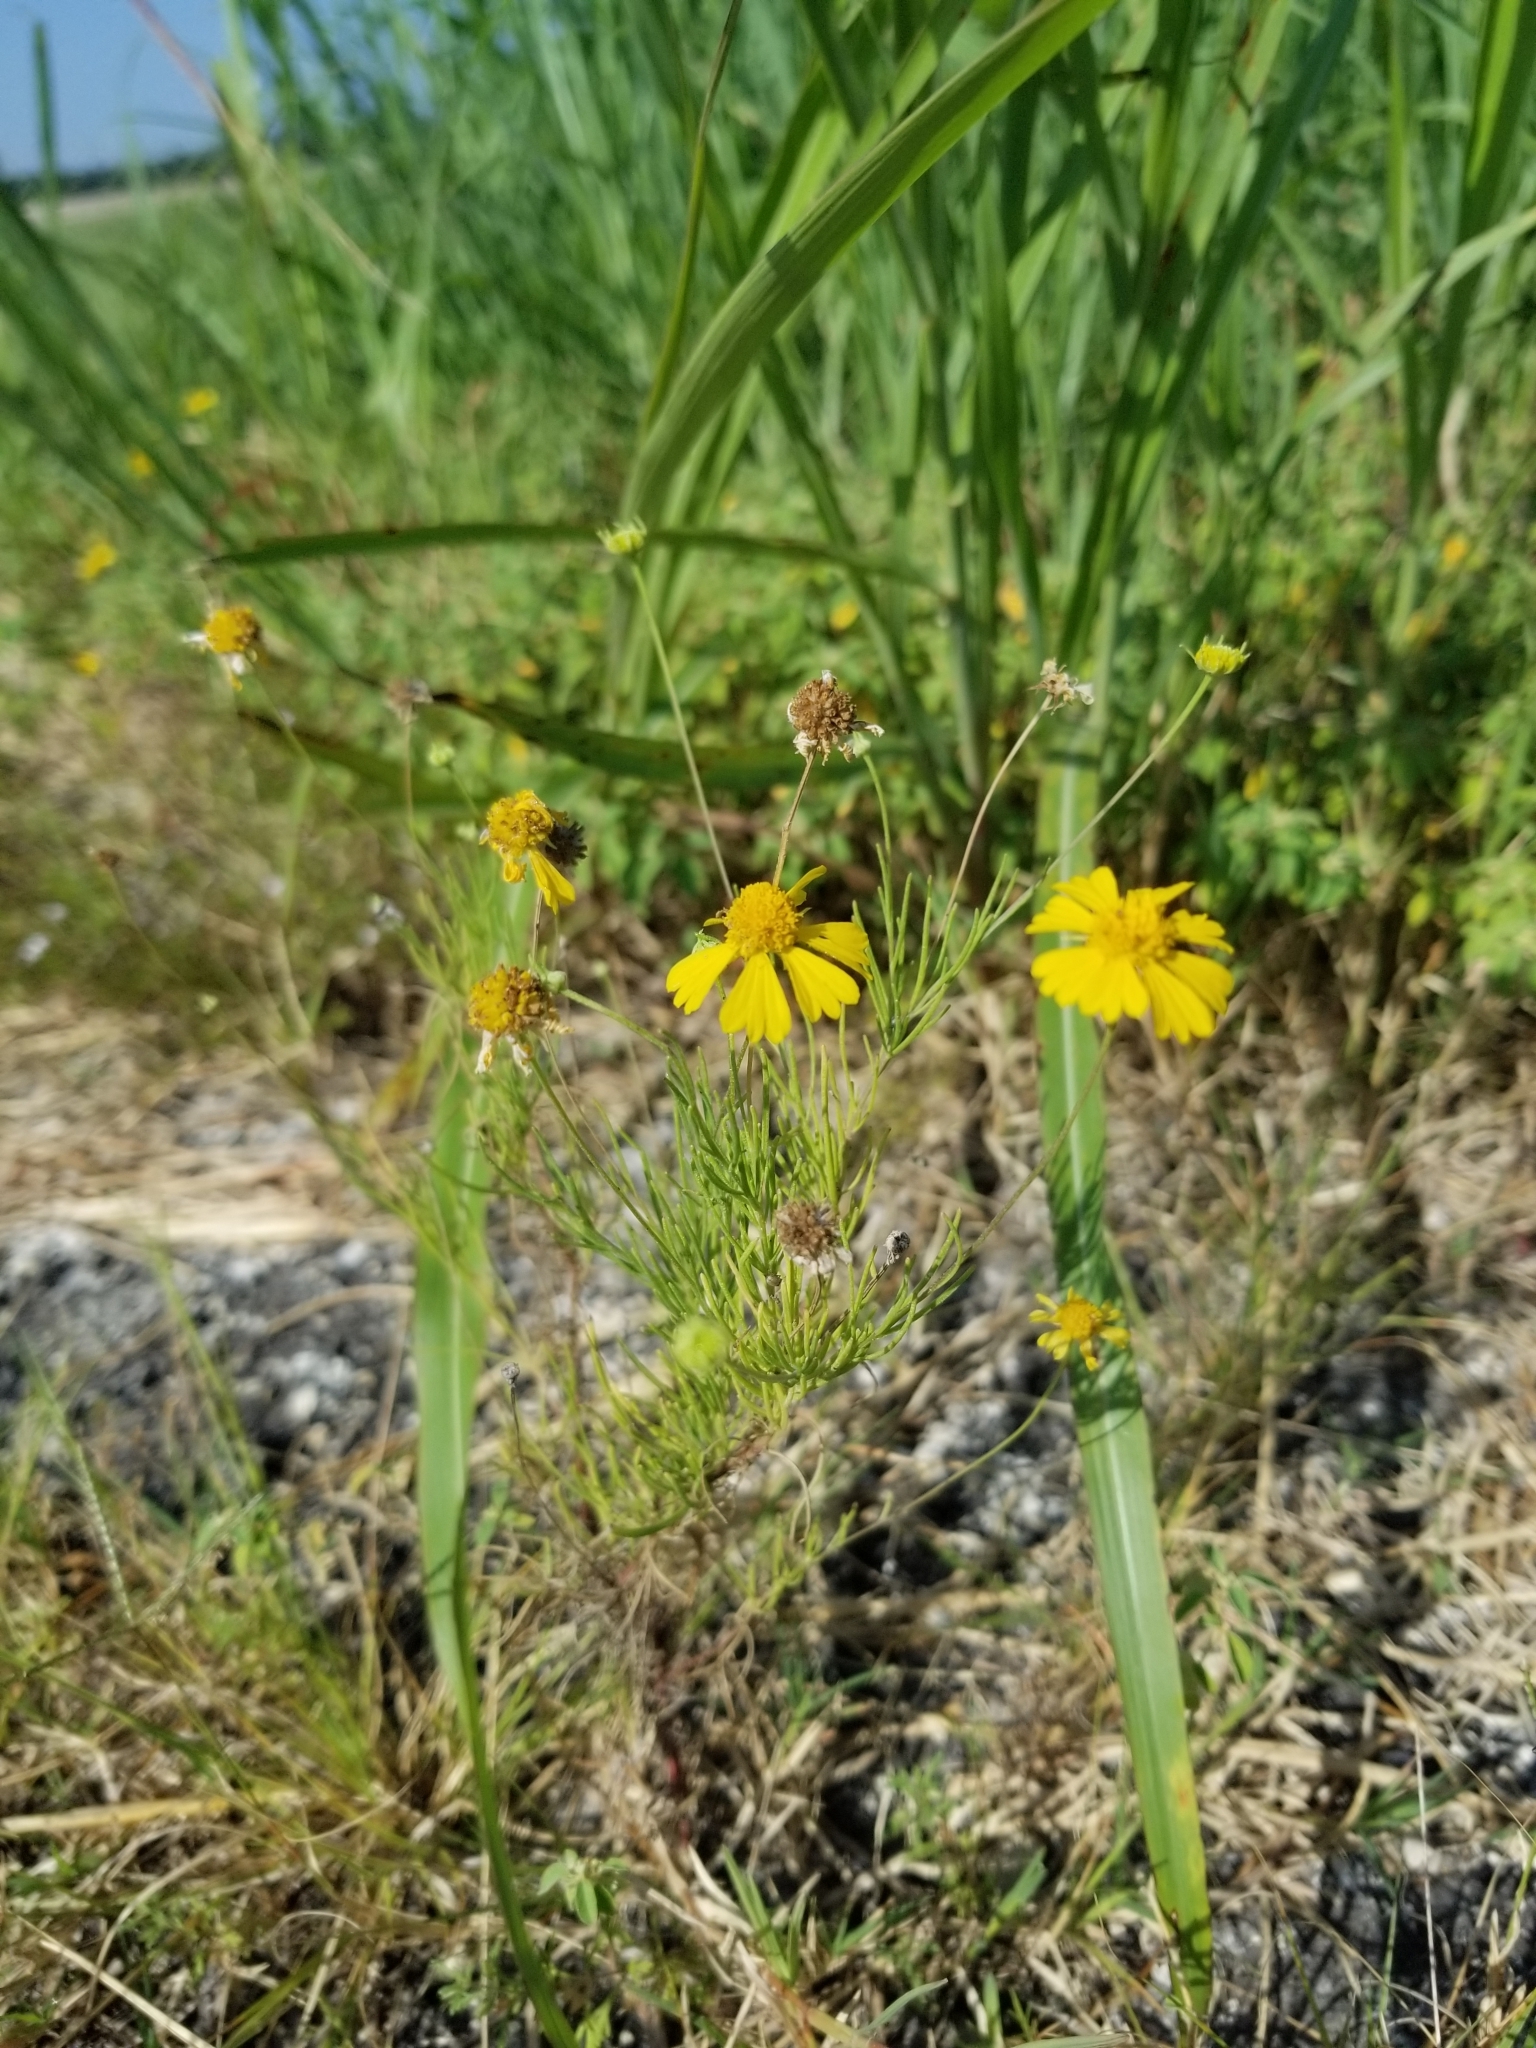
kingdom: Plantae
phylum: Tracheophyta
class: Magnoliopsida
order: Asterales
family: Asteraceae
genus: Helenium
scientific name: Helenium amarum
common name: Bitter sneezeweed
